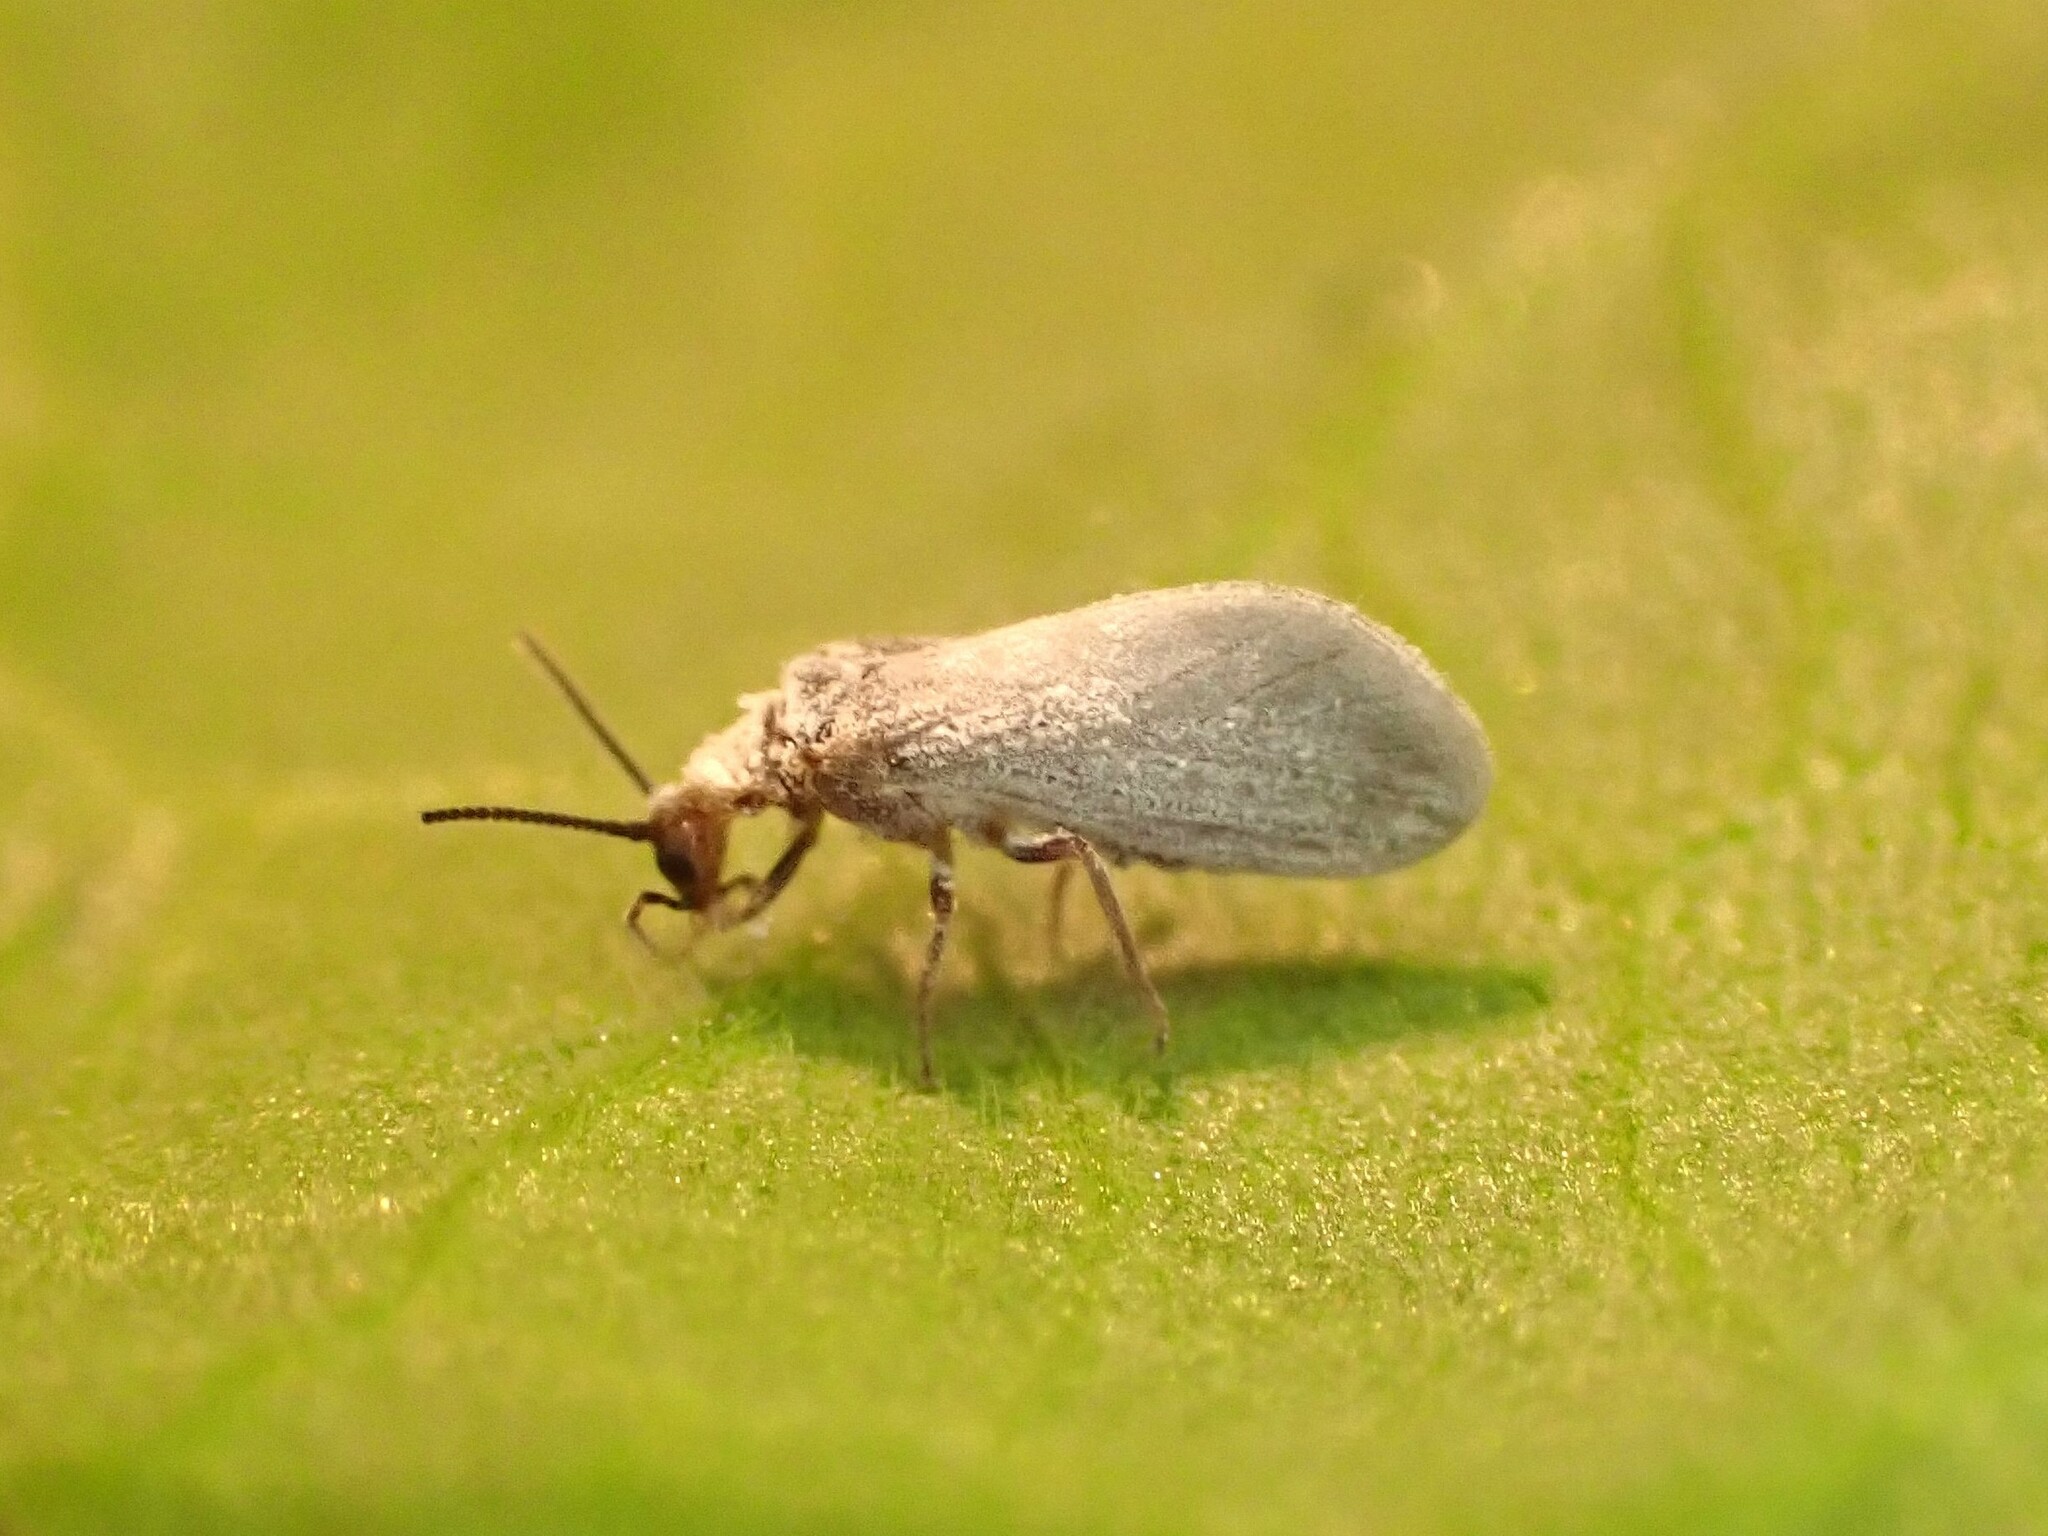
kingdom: Animalia
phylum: Arthropoda
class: Insecta
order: Neuroptera
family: Coniopterygidae
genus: Cryptoscenea
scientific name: Cryptoscenea australiensis
